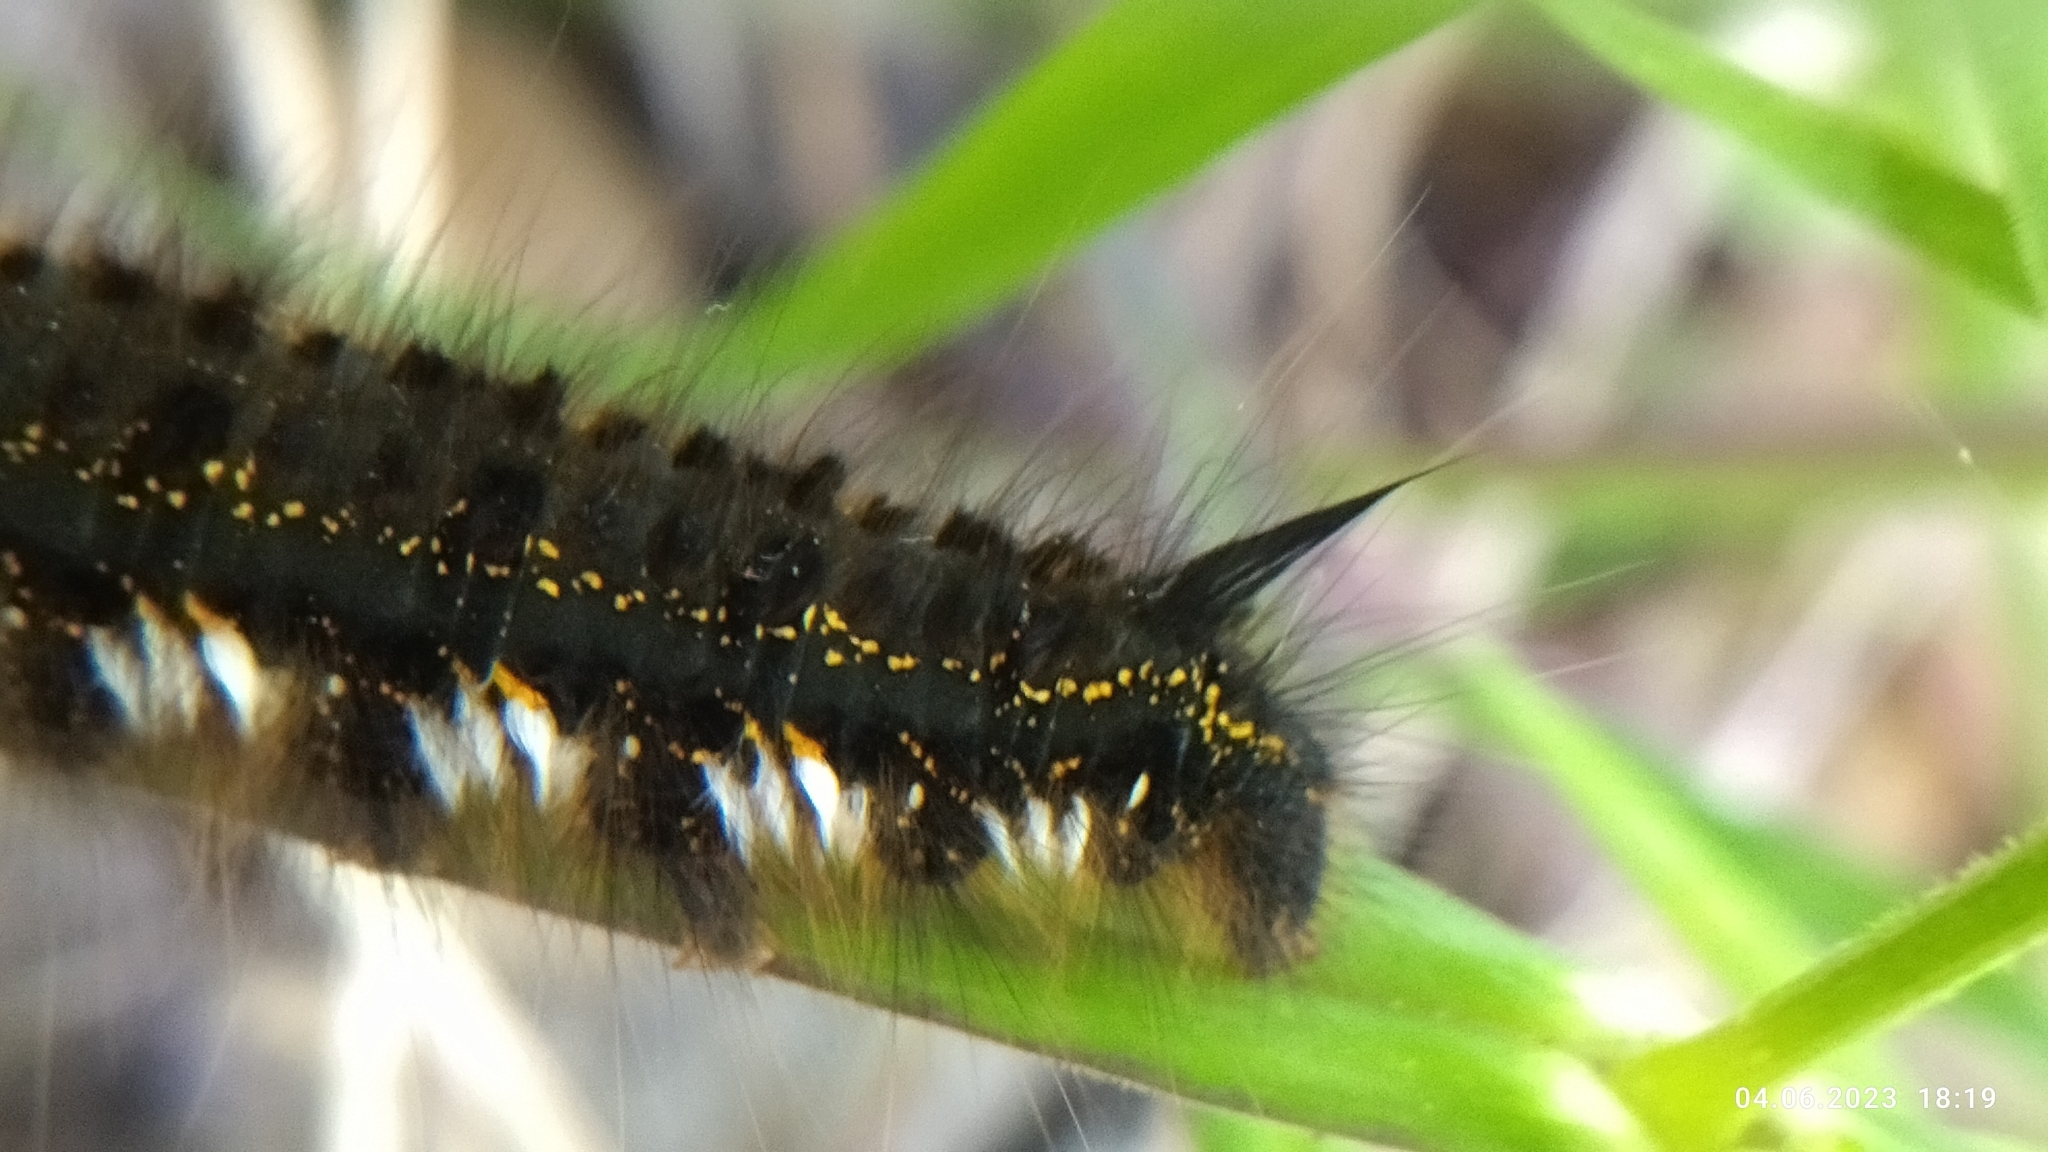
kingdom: Animalia
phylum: Arthropoda
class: Insecta
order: Lepidoptera
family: Lasiocampidae
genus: Euthrix
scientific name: Euthrix potatoria
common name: Drinker
